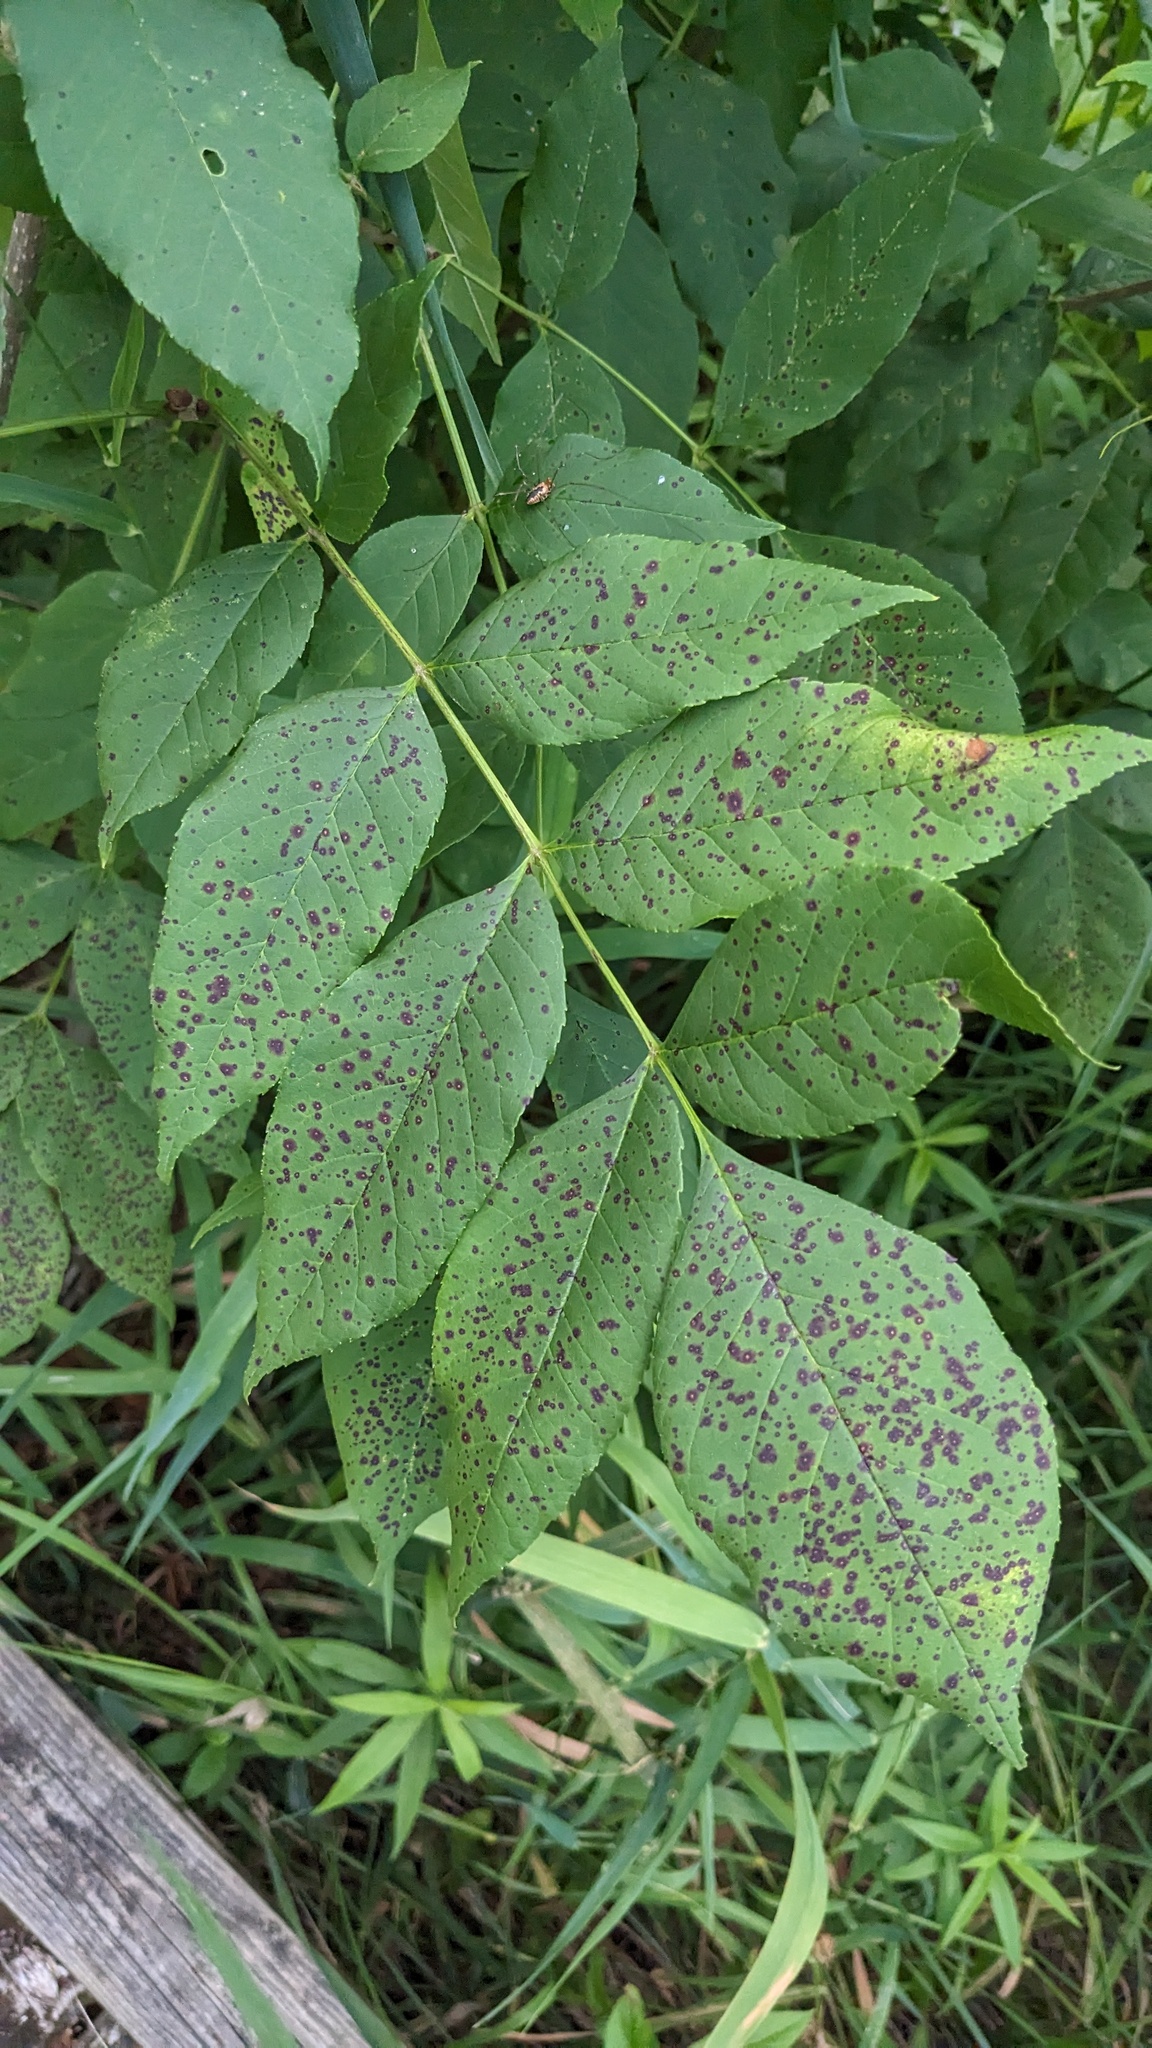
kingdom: Fungi
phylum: Ascomycota
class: Dothideomycetes
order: Mycosphaerellales
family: Mycosphaerellaceae
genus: Mycosphaerella
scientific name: Mycosphaerella fraxinicola
